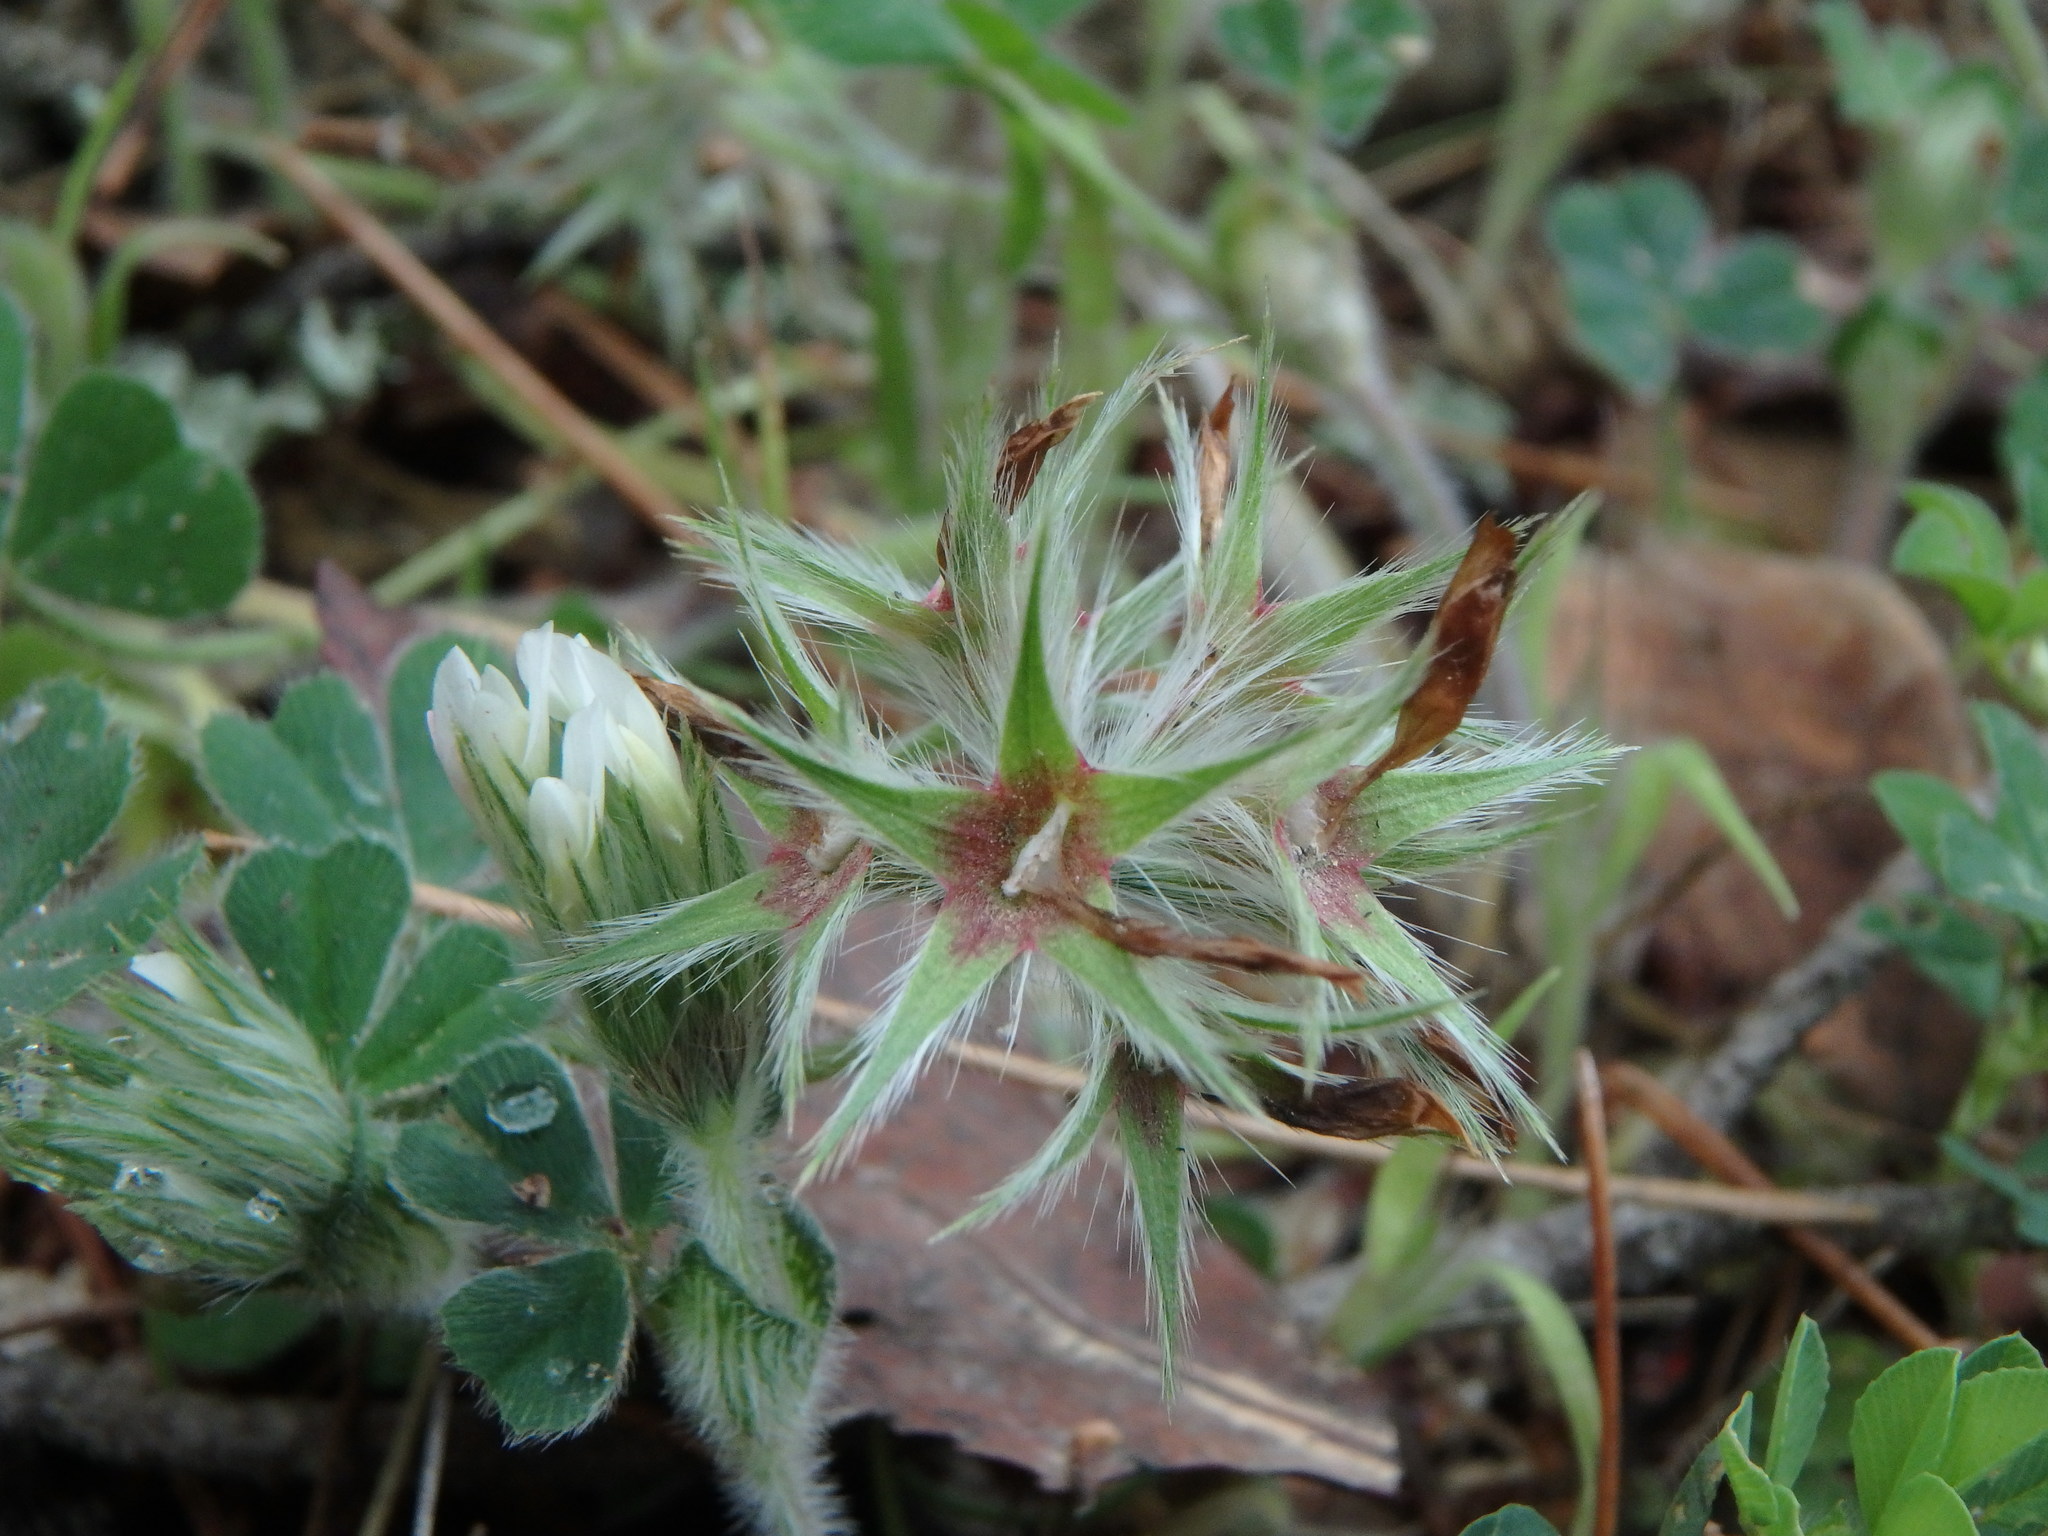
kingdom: Plantae
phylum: Tracheophyta
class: Magnoliopsida
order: Fabales
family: Fabaceae
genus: Trifolium
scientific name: Trifolium stellatum
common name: Starry clover
